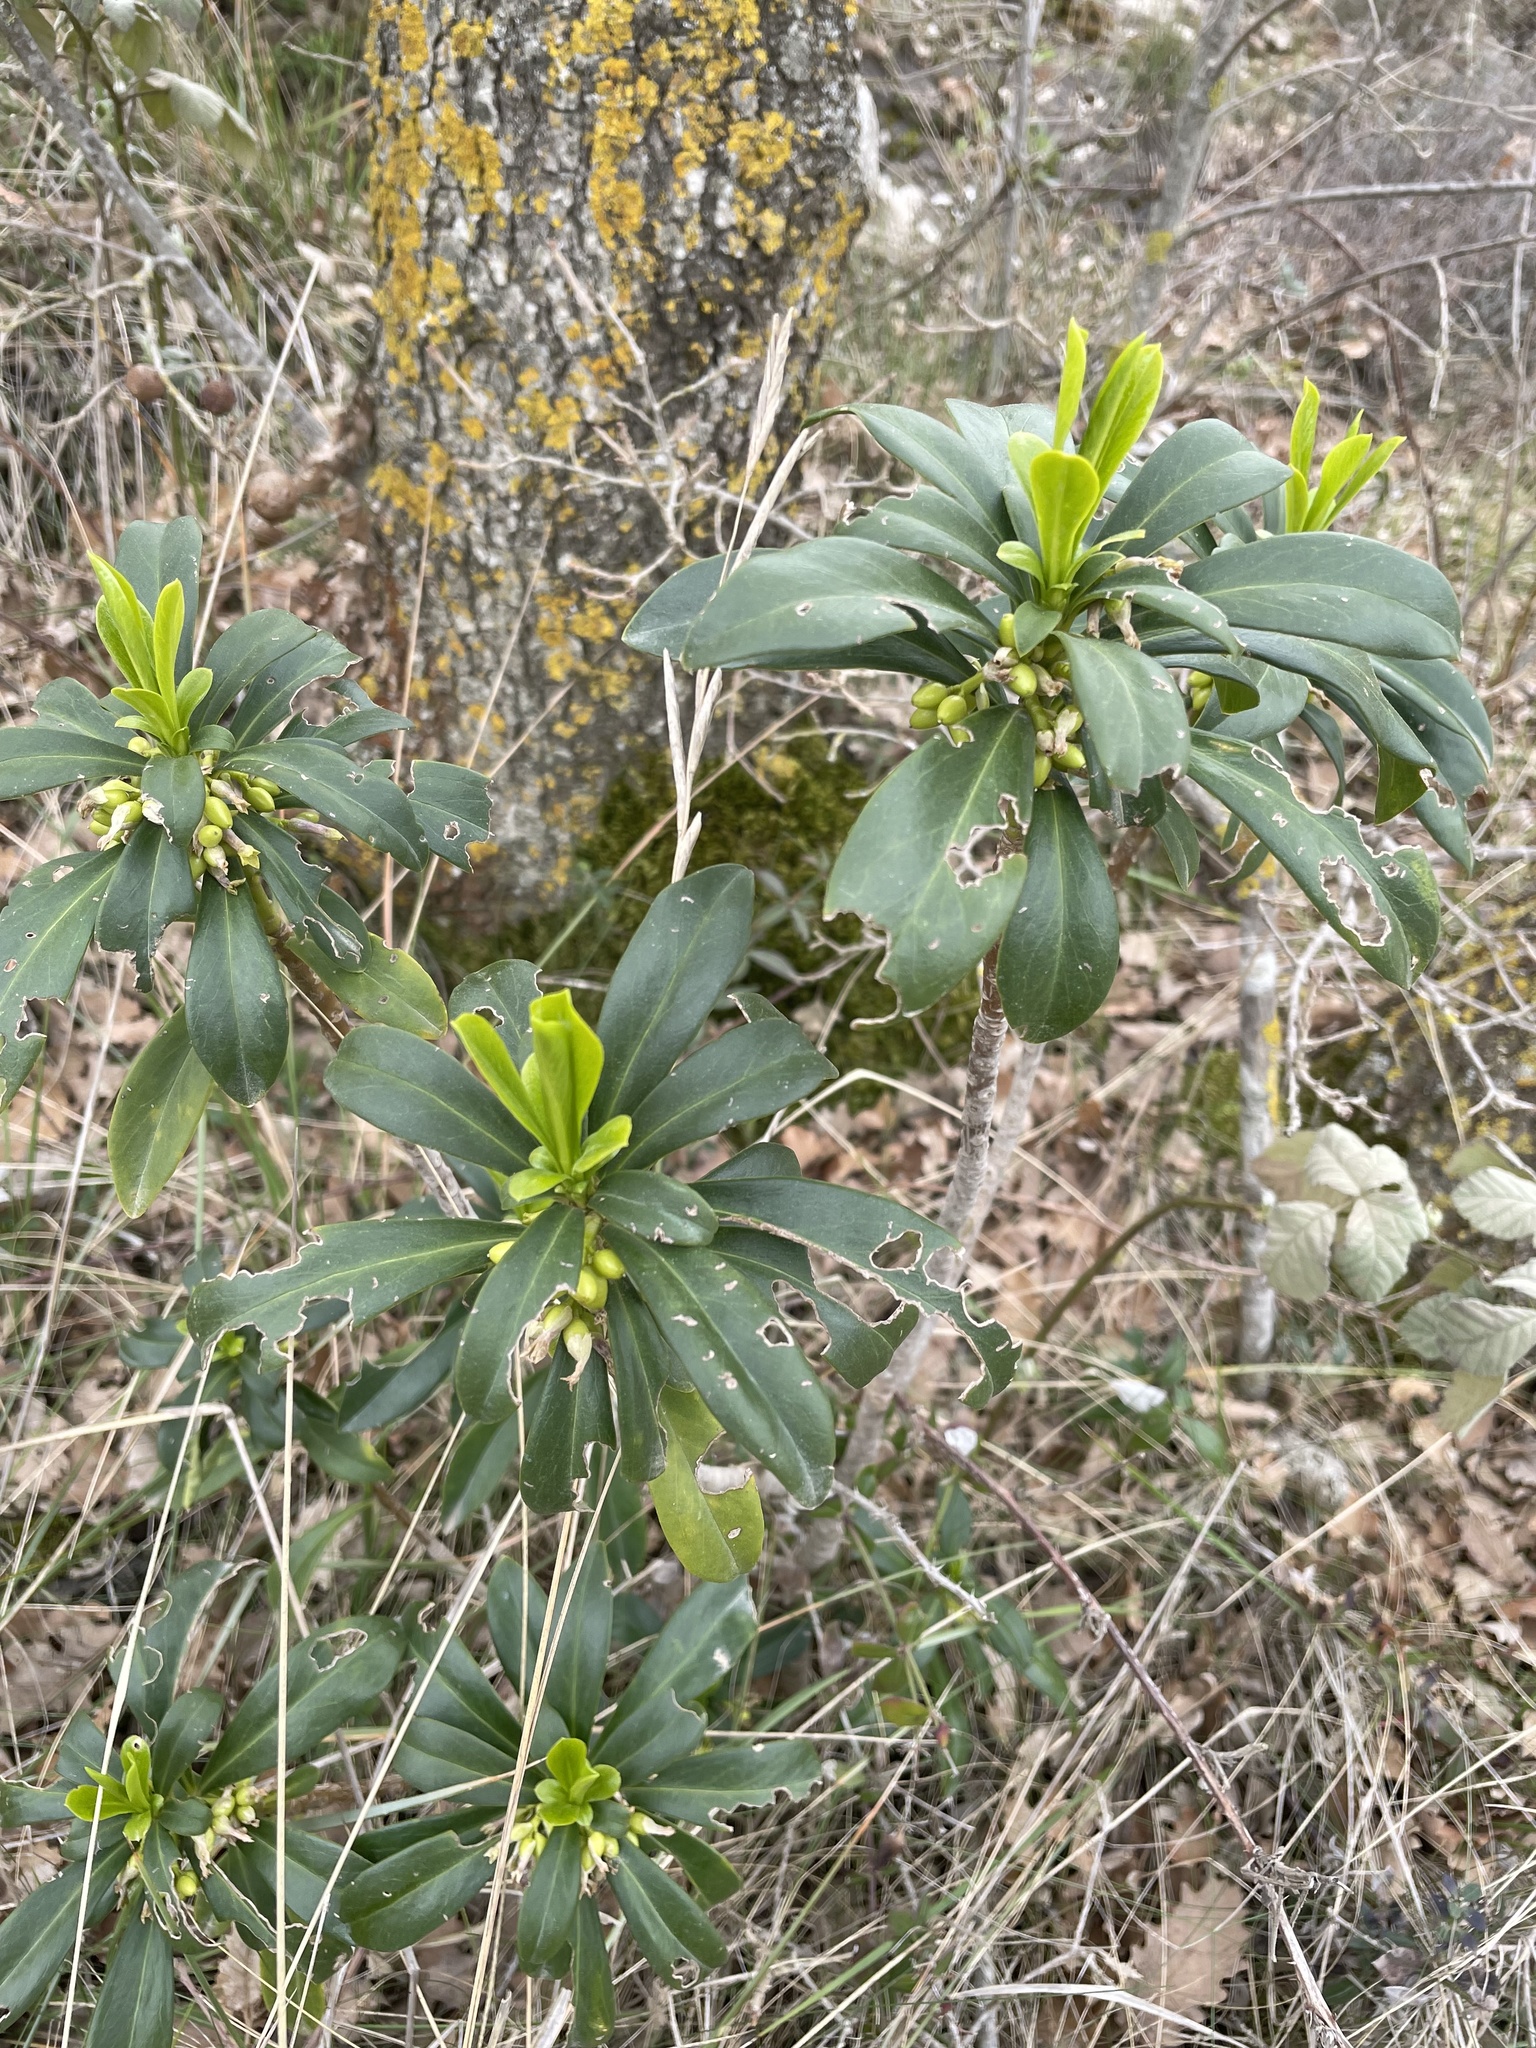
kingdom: Plantae
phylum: Tracheophyta
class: Magnoliopsida
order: Malvales
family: Thymelaeaceae
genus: Daphne
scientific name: Daphne laureola
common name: Spurge-laurel
